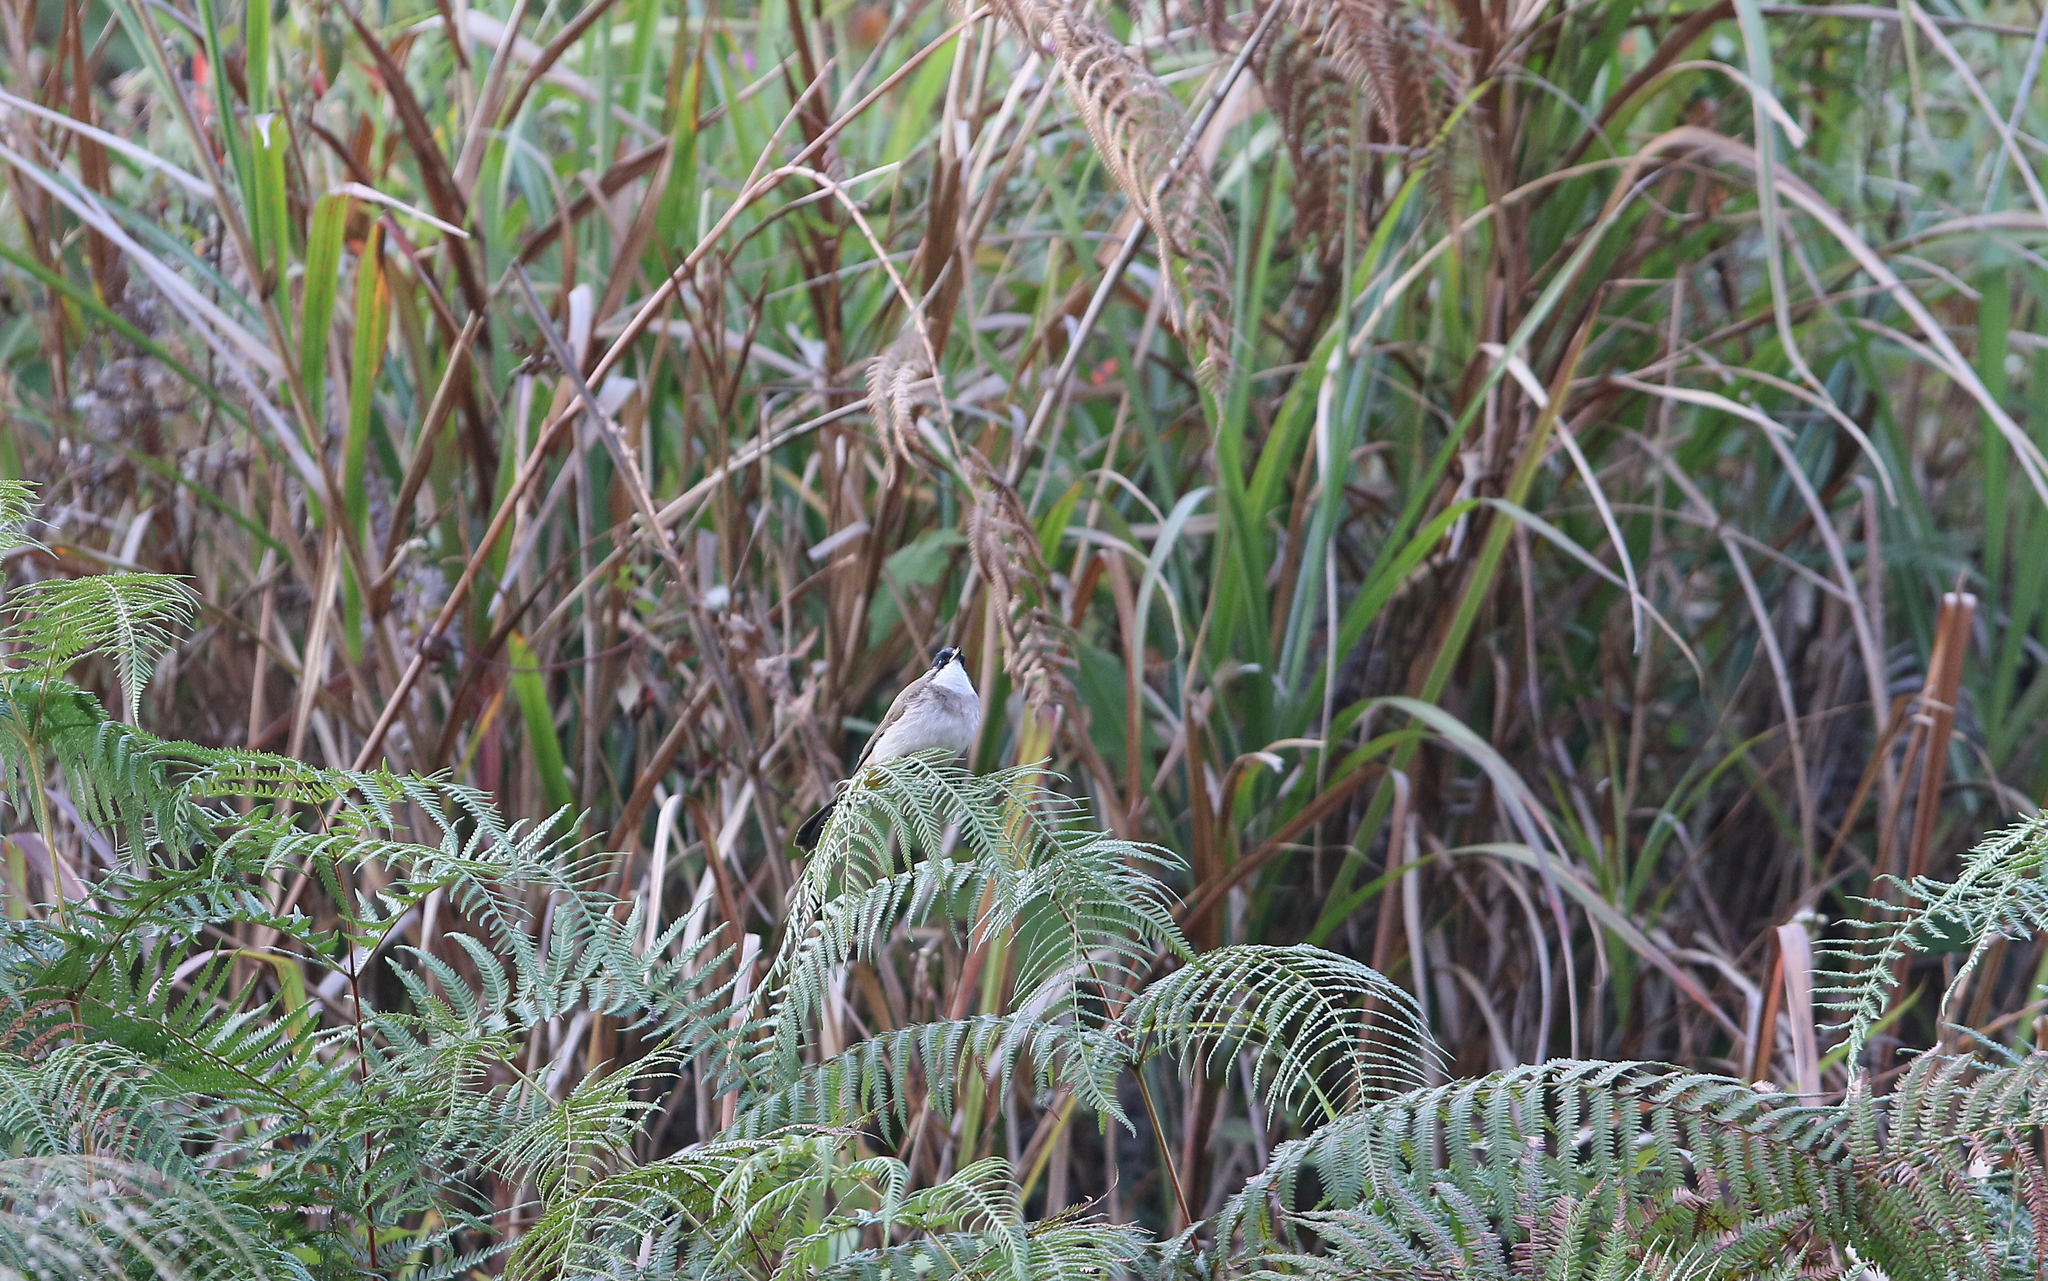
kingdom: Animalia
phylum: Chordata
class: Aves
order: Passeriformes
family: Pycnonotidae
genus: Pycnonotus
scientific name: Pycnonotus xanthorrhous
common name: Brown-breasted bulbul
